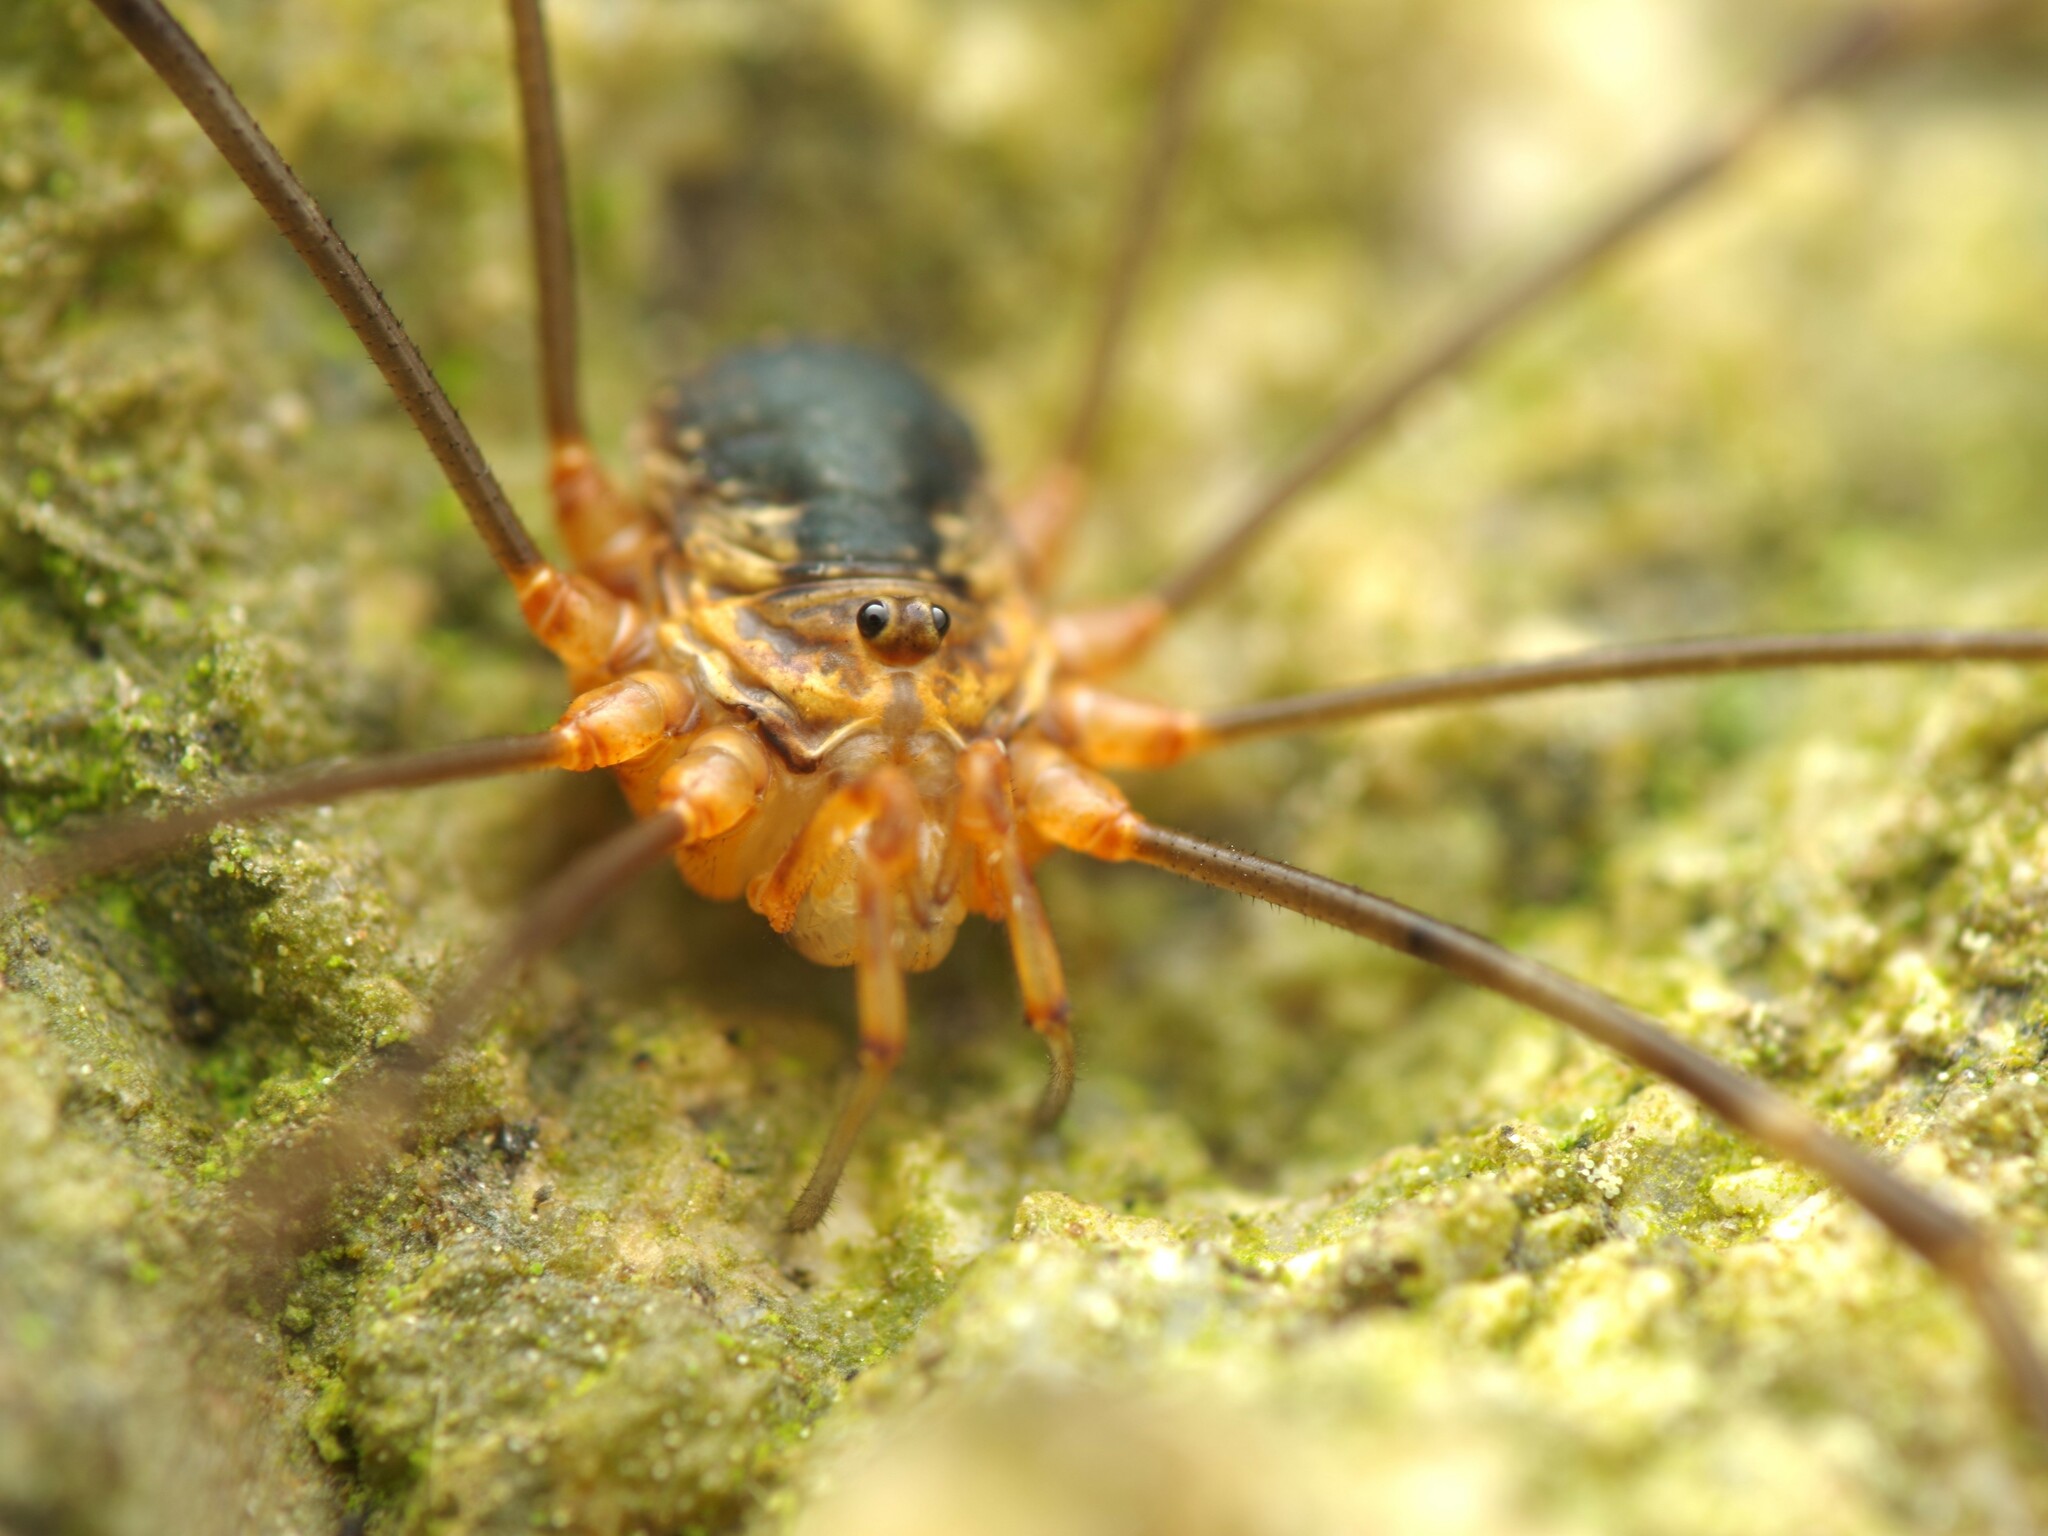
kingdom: Animalia
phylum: Arthropoda
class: Arachnida
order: Opiliones
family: Phalangiidae
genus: Dicranopalpus
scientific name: Dicranopalpus catariegensis
